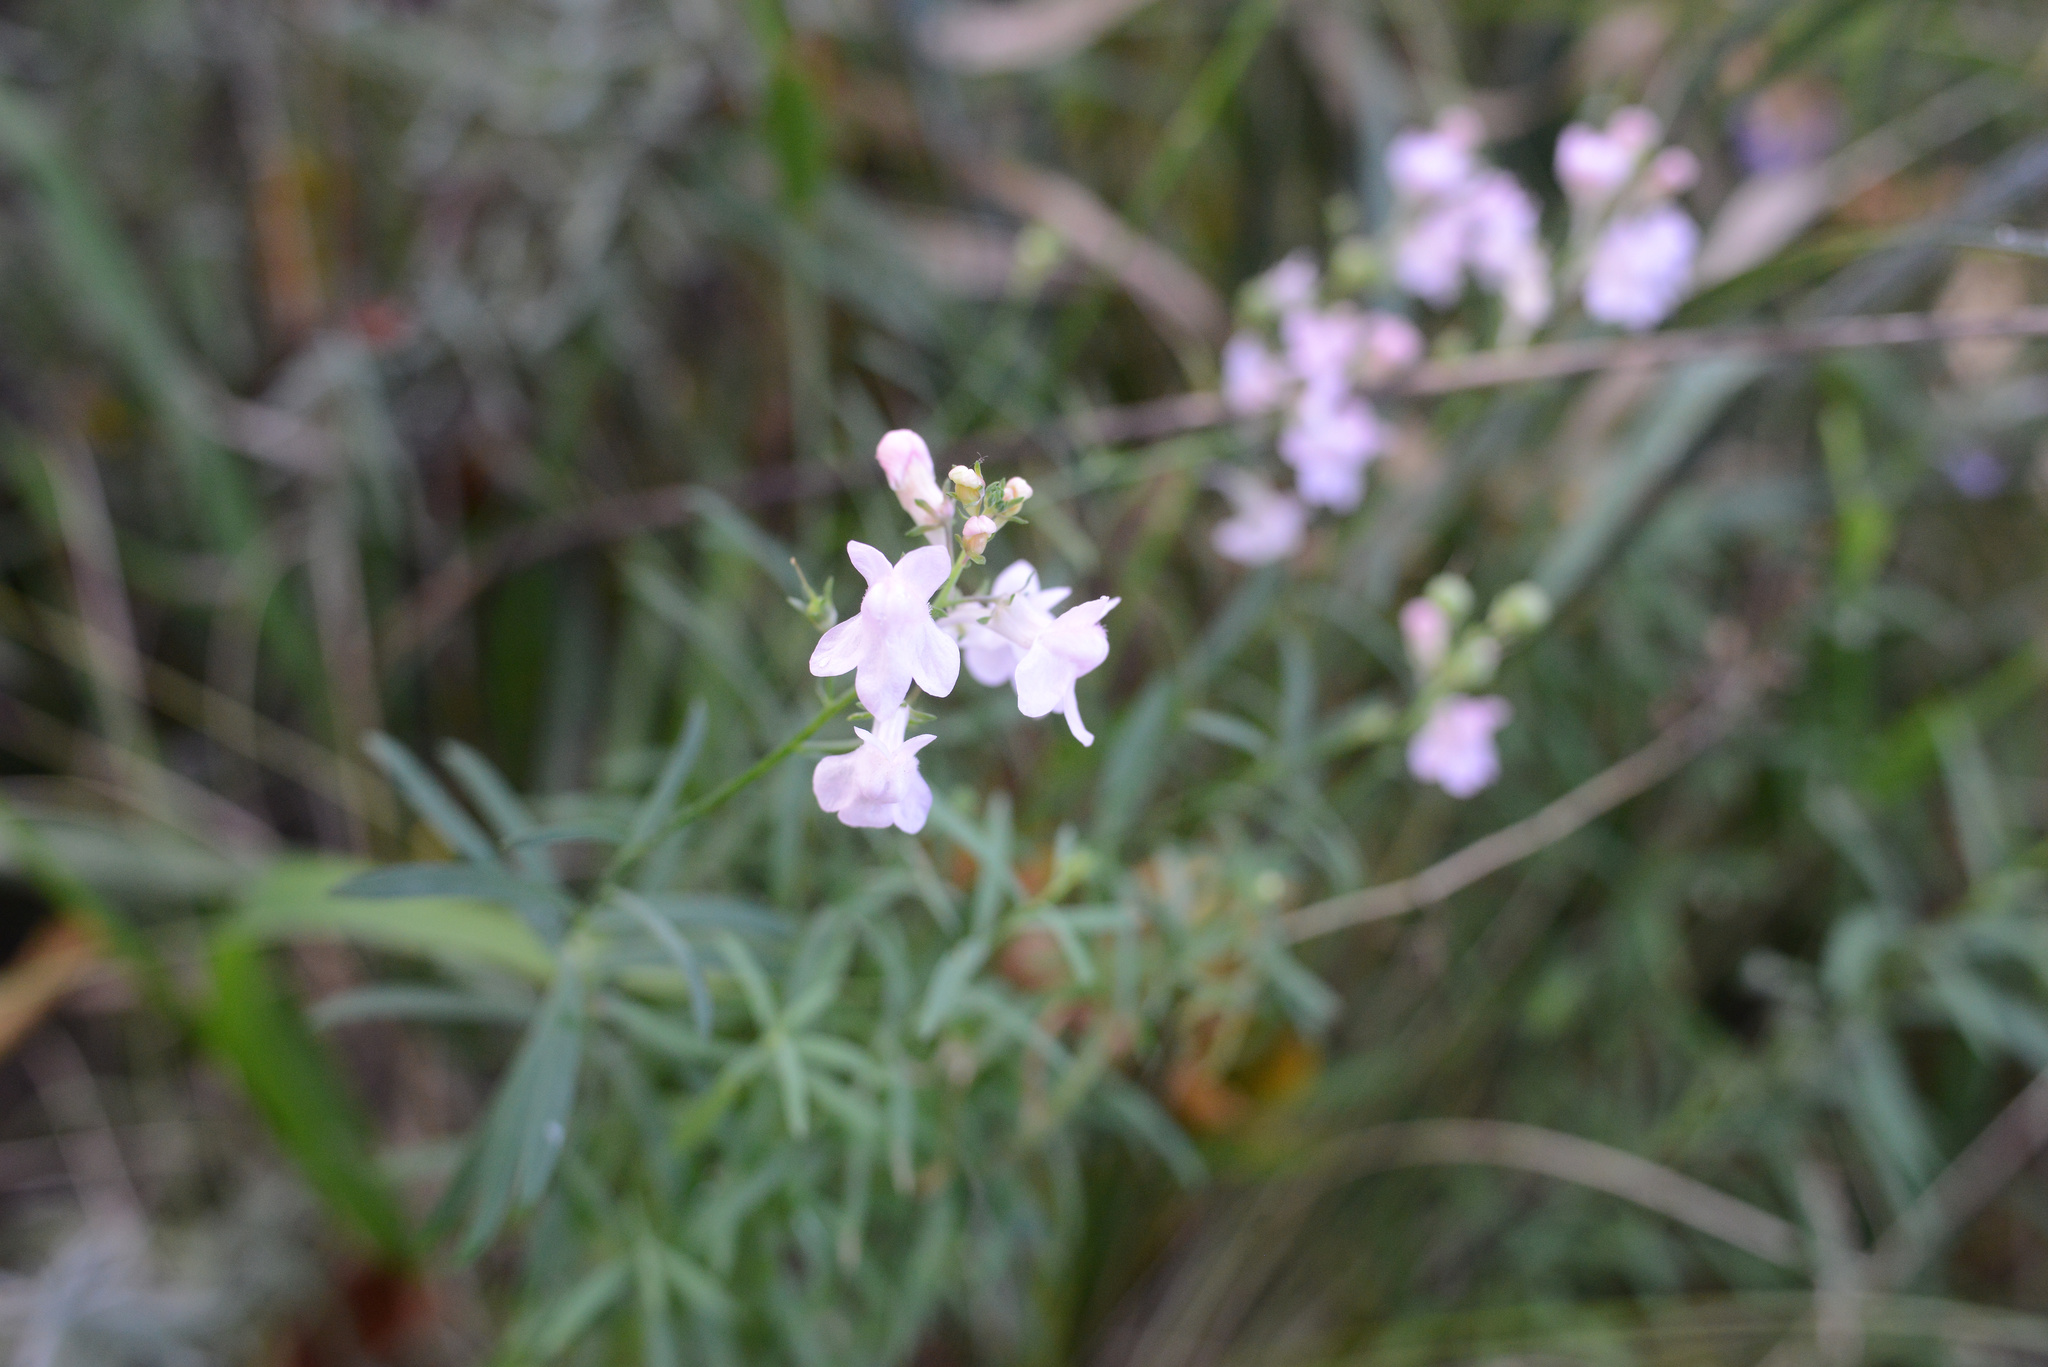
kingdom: Plantae
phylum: Tracheophyta
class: Magnoliopsida
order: Lamiales
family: Plantaginaceae
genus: Linaria
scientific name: Linaria purpurea
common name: Purple toadflax
